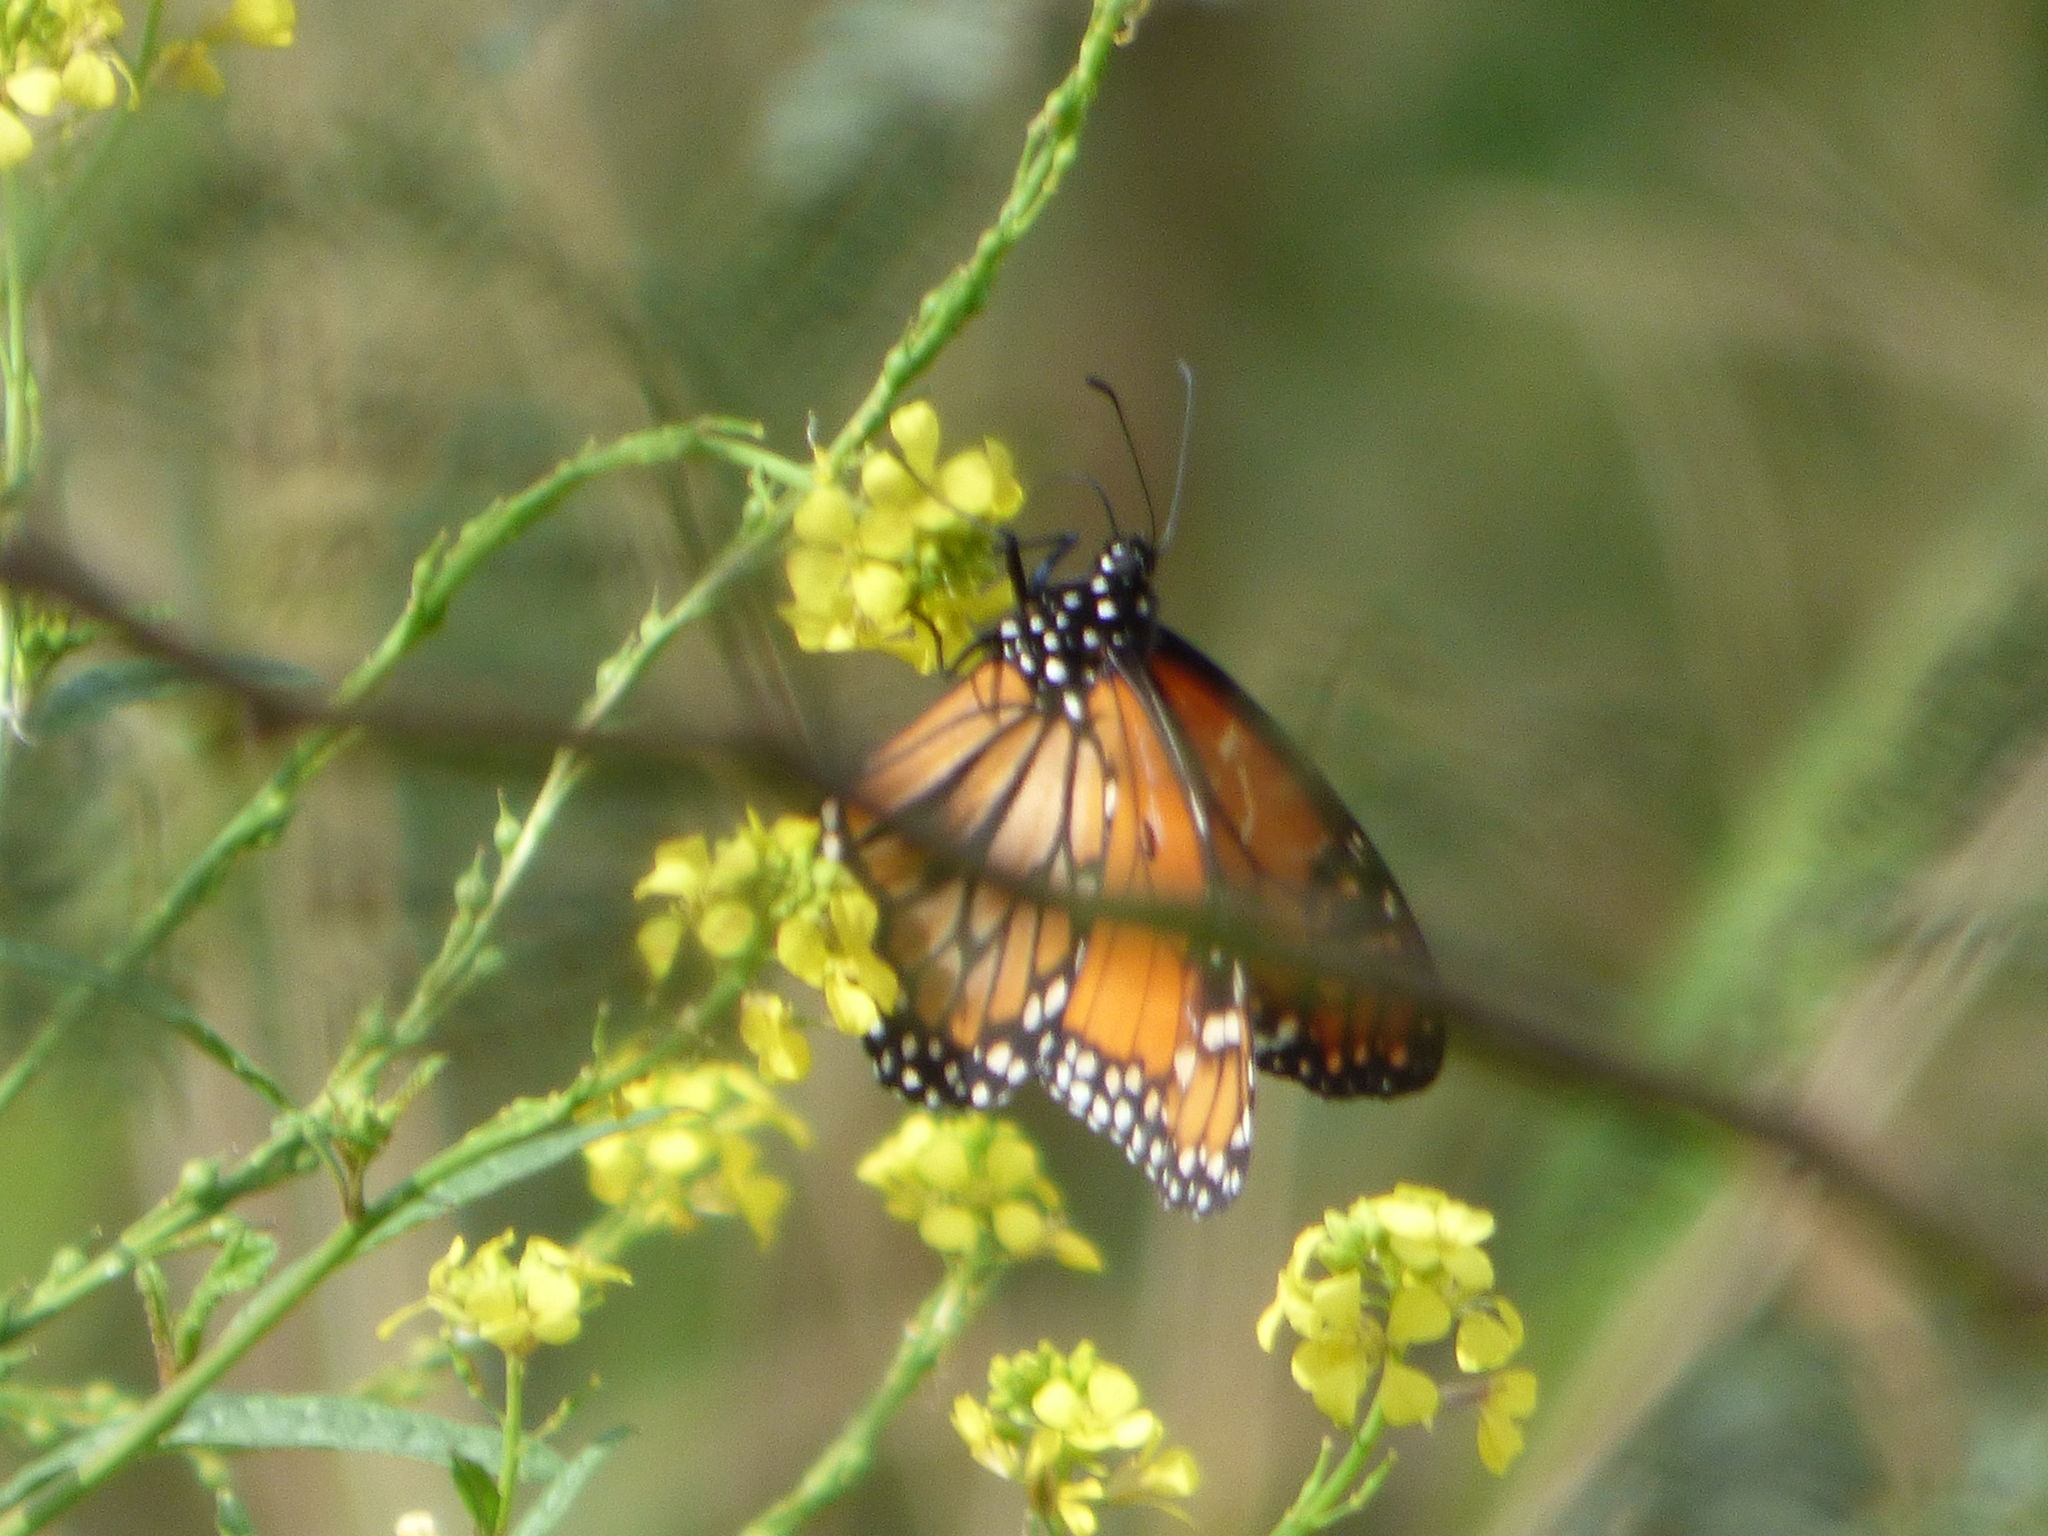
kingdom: Animalia
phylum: Arthropoda
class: Insecta
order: Lepidoptera
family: Nymphalidae
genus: Danaus
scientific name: Danaus erippus
